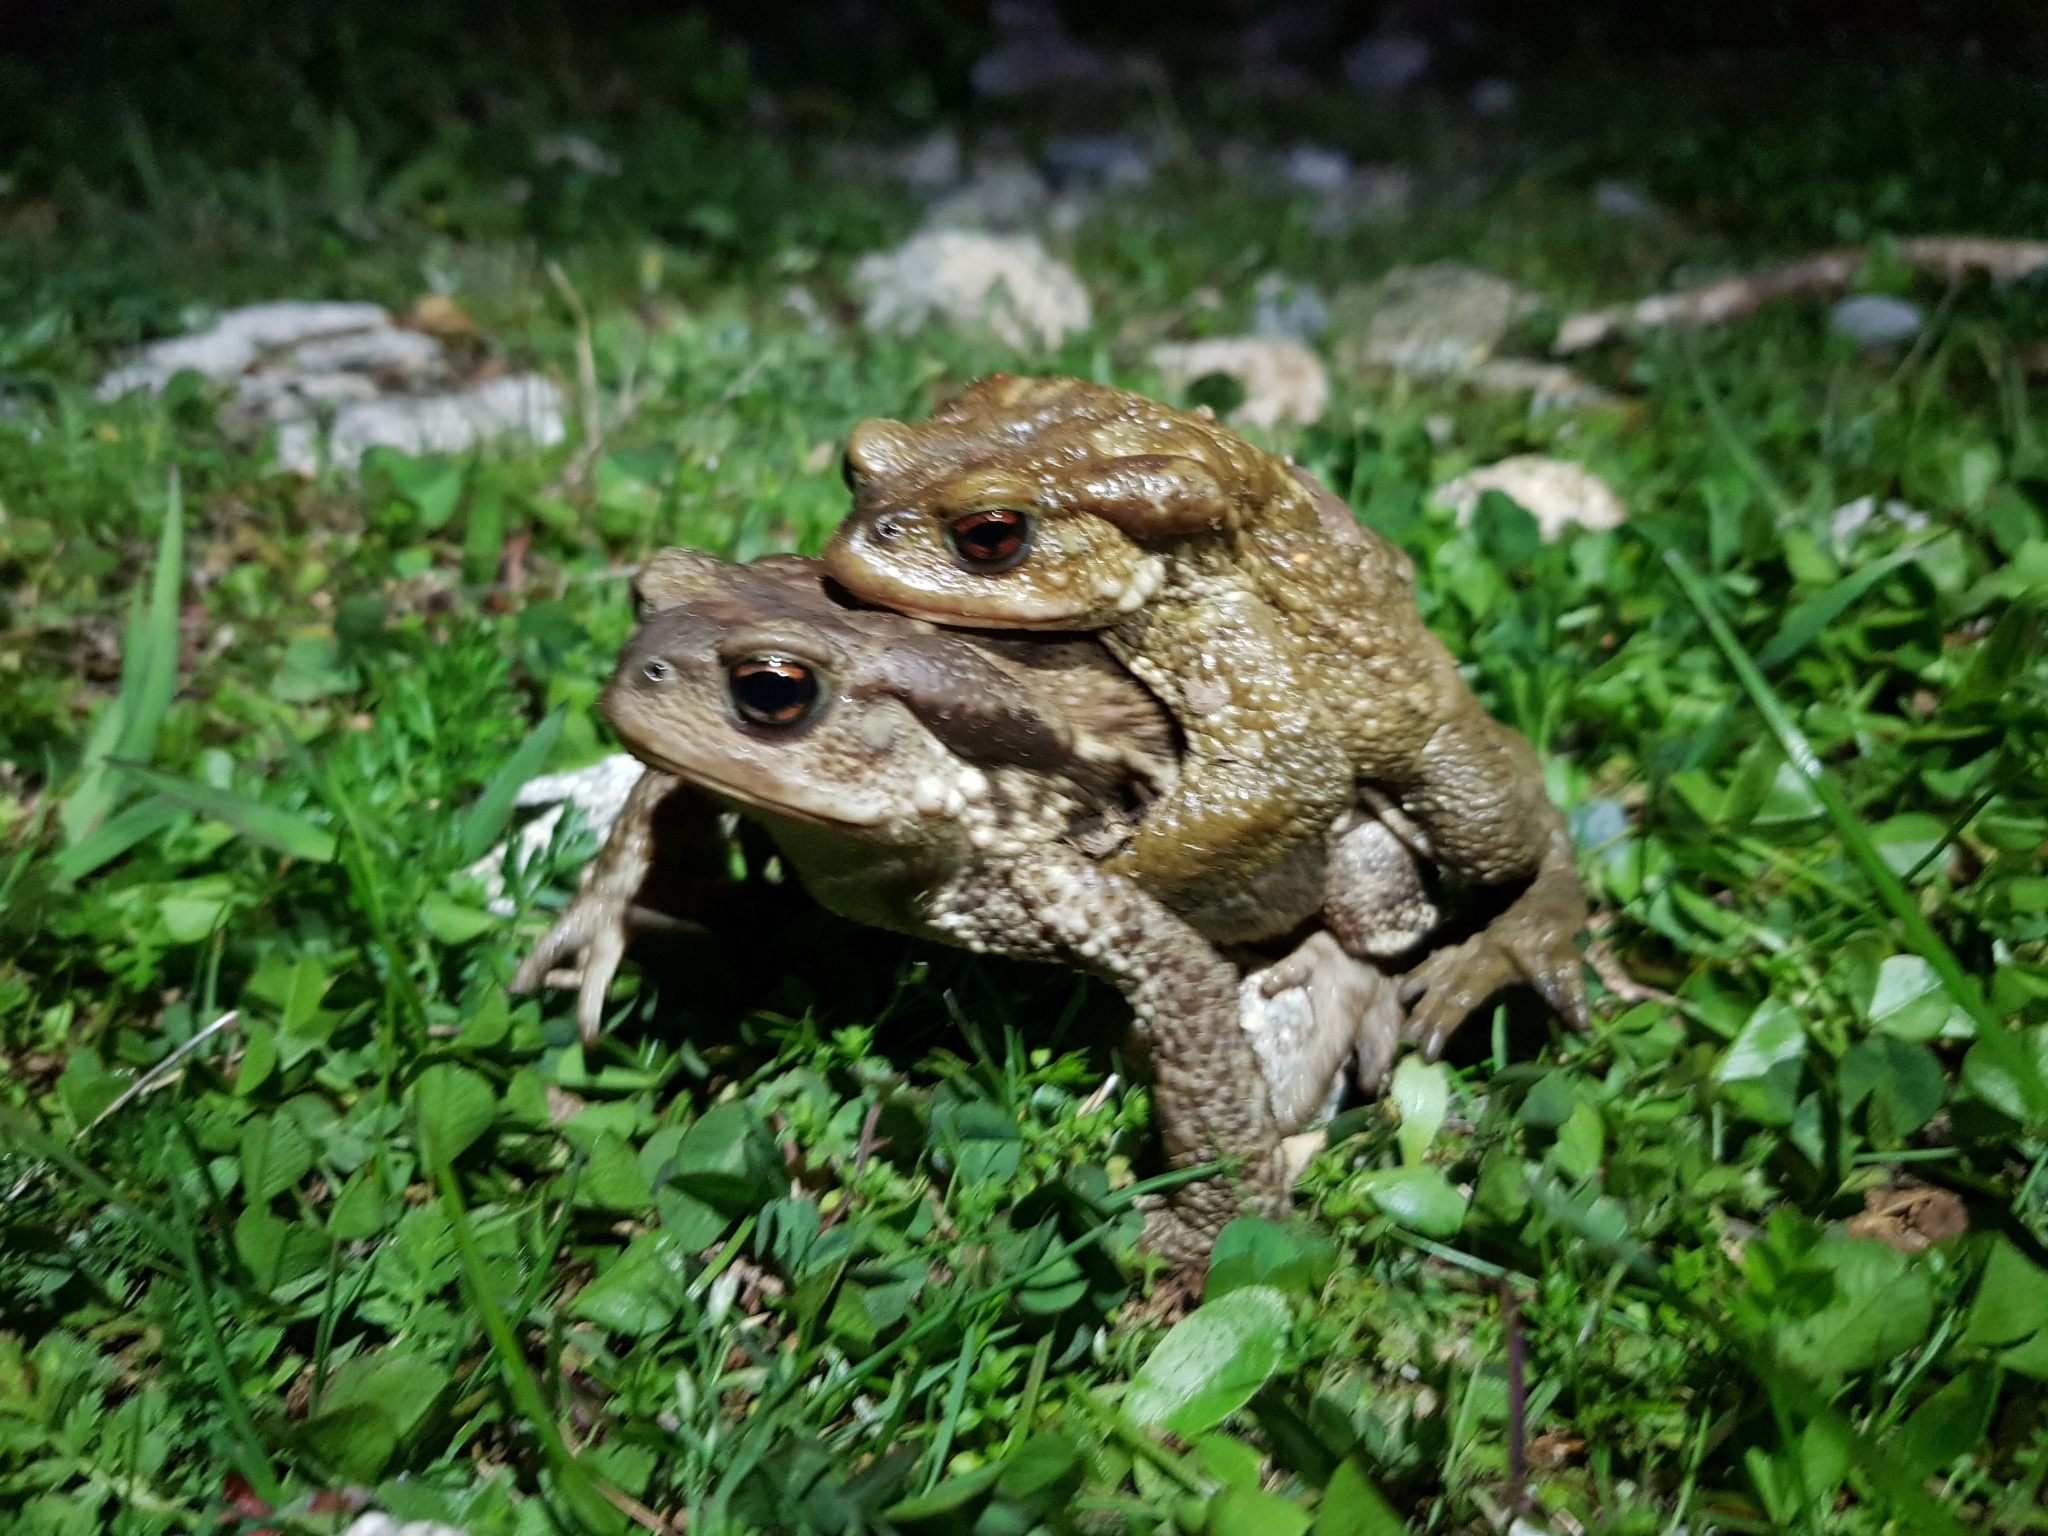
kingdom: Animalia
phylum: Chordata
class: Amphibia
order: Anura
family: Bufonidae
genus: Bufo
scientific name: Bufo spinosus
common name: Western common toad
